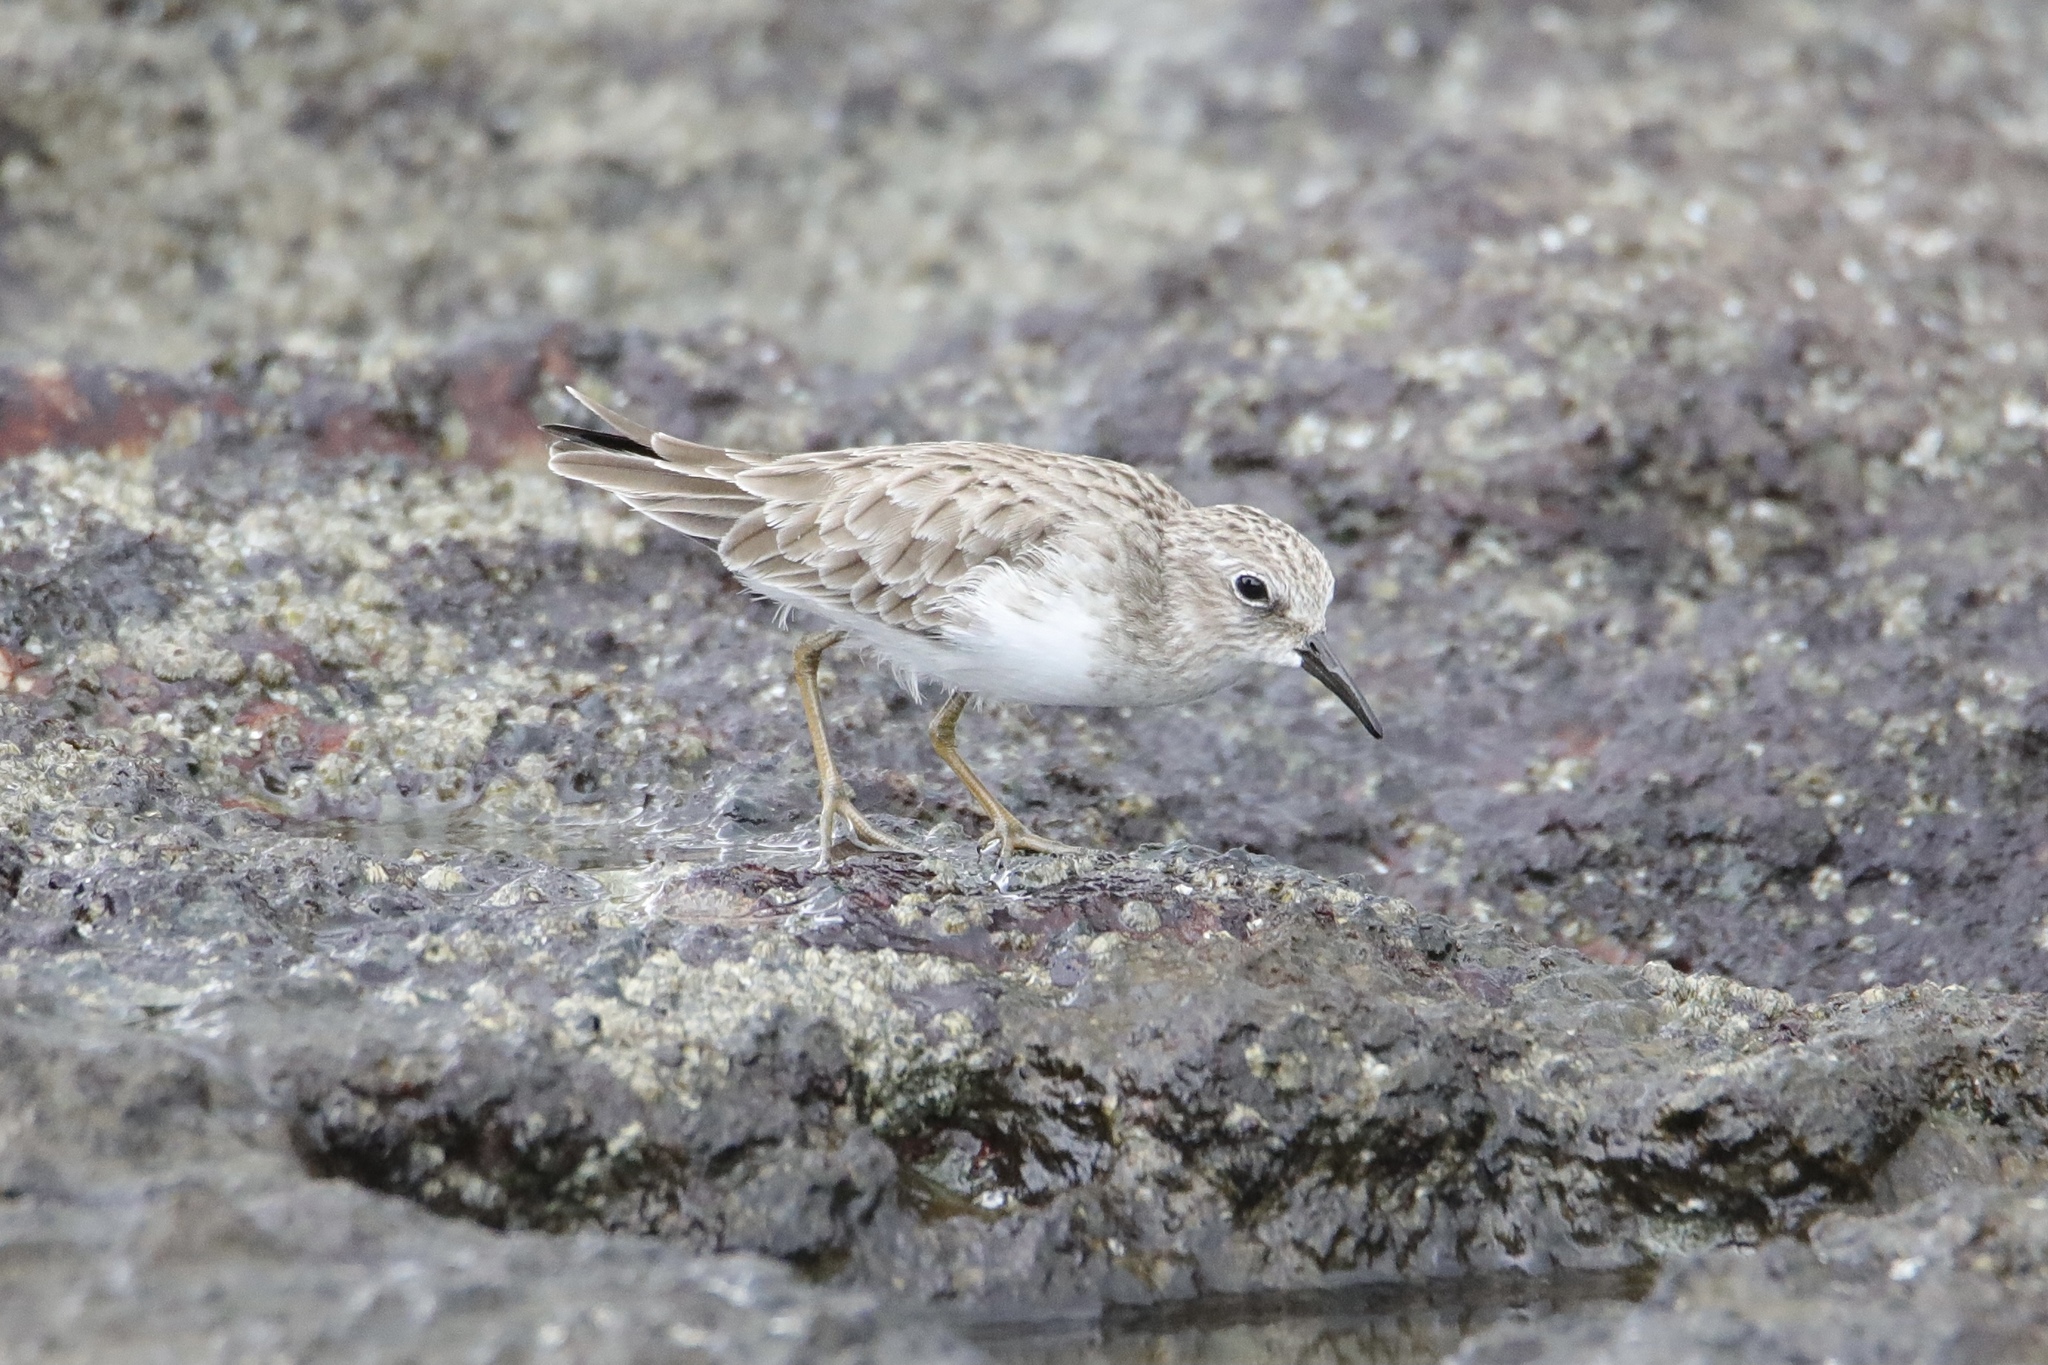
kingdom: Animalia
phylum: Chordata
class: Aves
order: Charadriiformes
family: Scolopacidae
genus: Calidris
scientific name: Calidris minutilla
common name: Least sandpiper
